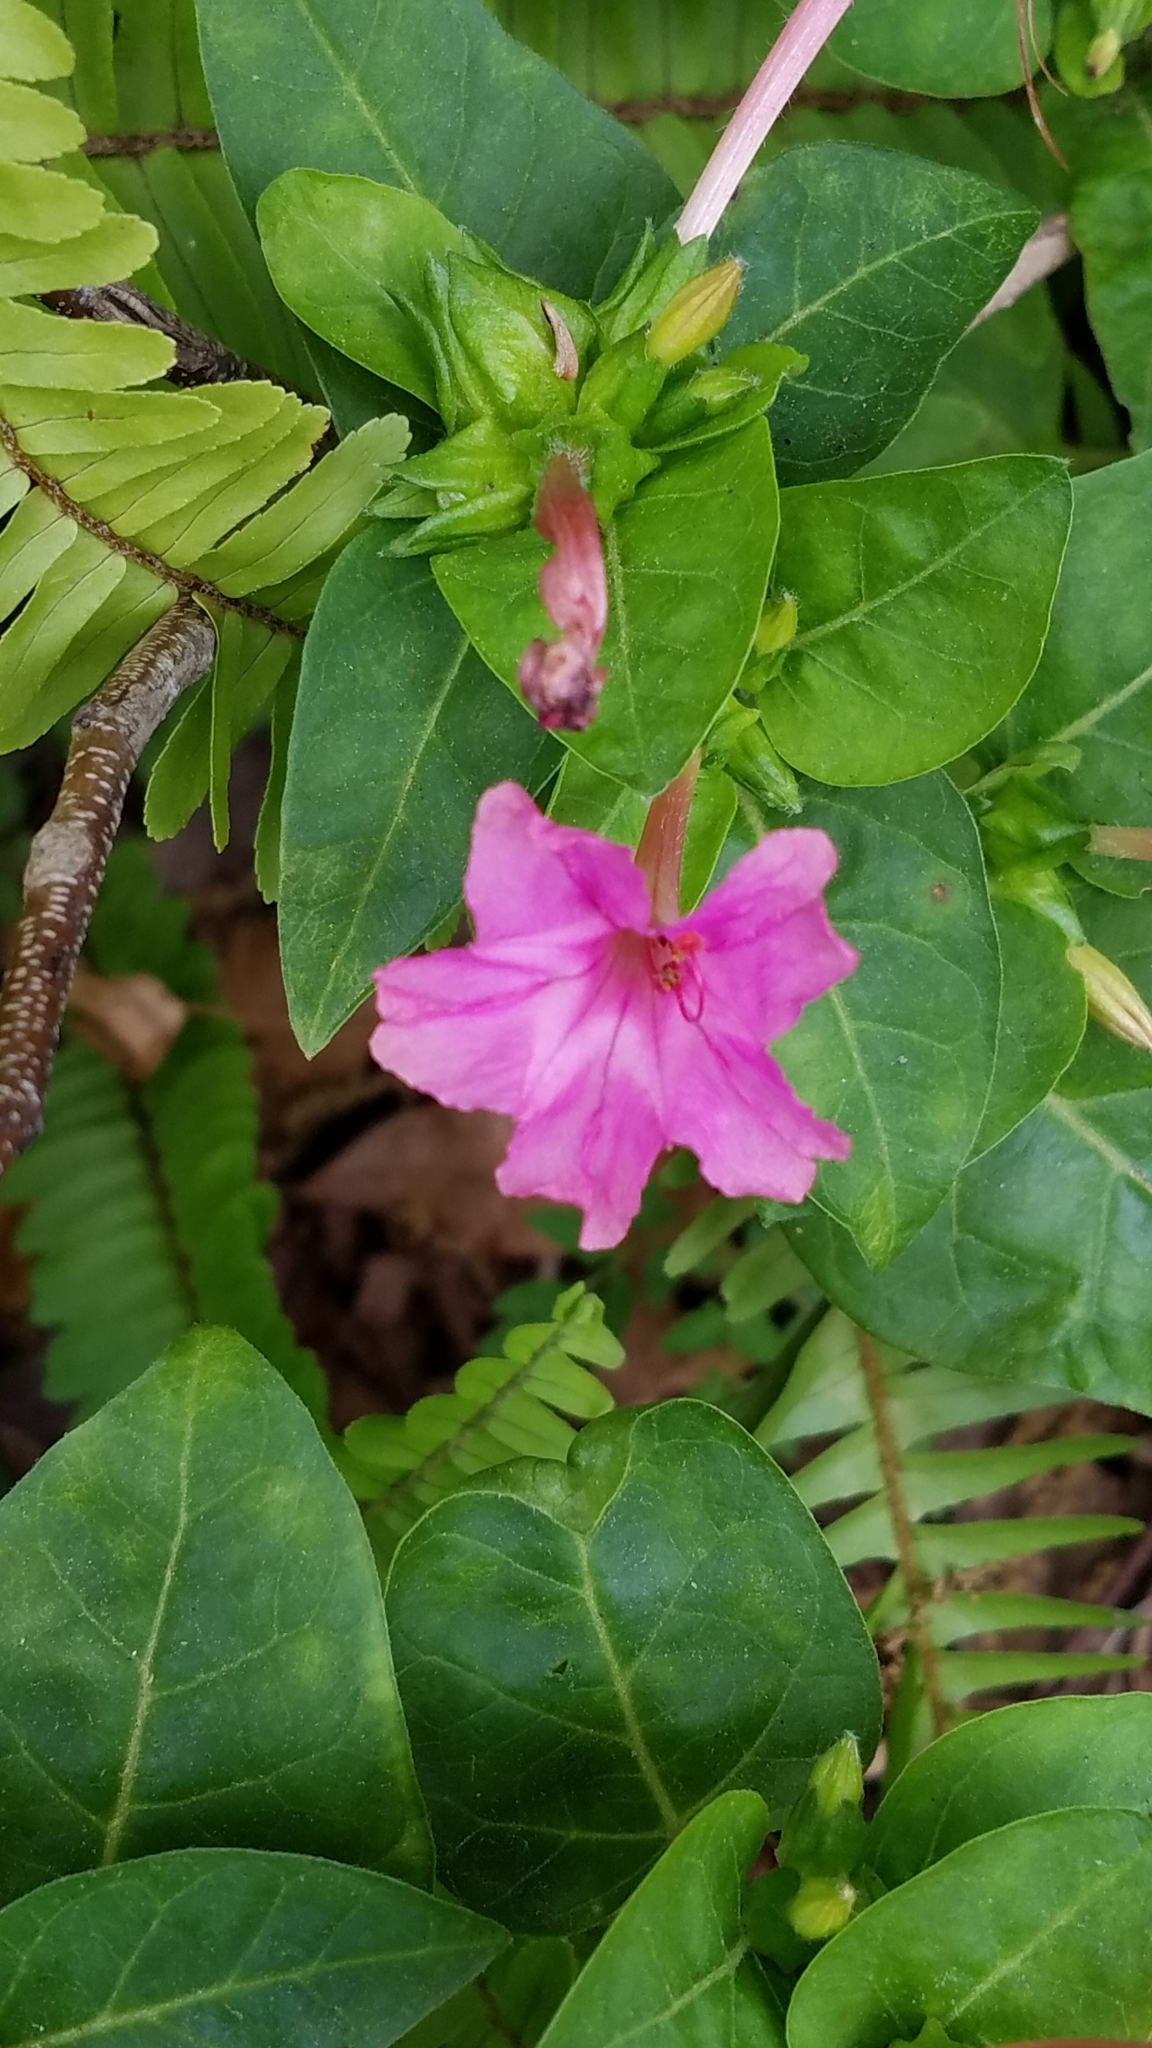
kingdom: Plantae
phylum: Tracheophyta
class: Magnoliopsida
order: Caryophyllales
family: Nyctaginaceae
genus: Mirabilis
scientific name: Mirabilis jalapa
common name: Marvel-of-peru
